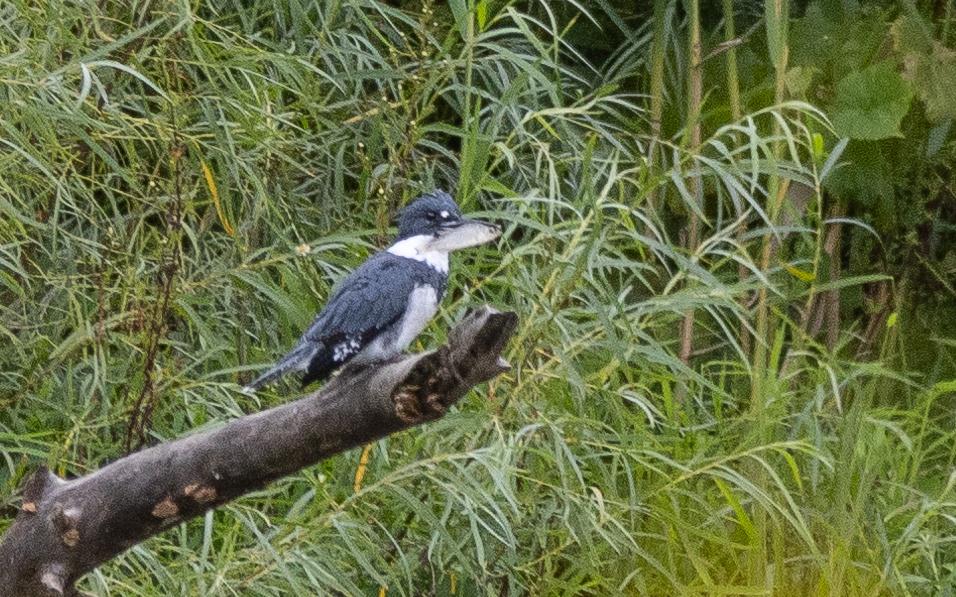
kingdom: Animalia
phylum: Chordata
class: Aves
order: Coraciiformes
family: Alcedinidae
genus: Megaceryle
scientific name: Megaceryle alcyon
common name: Belted kingfisher
